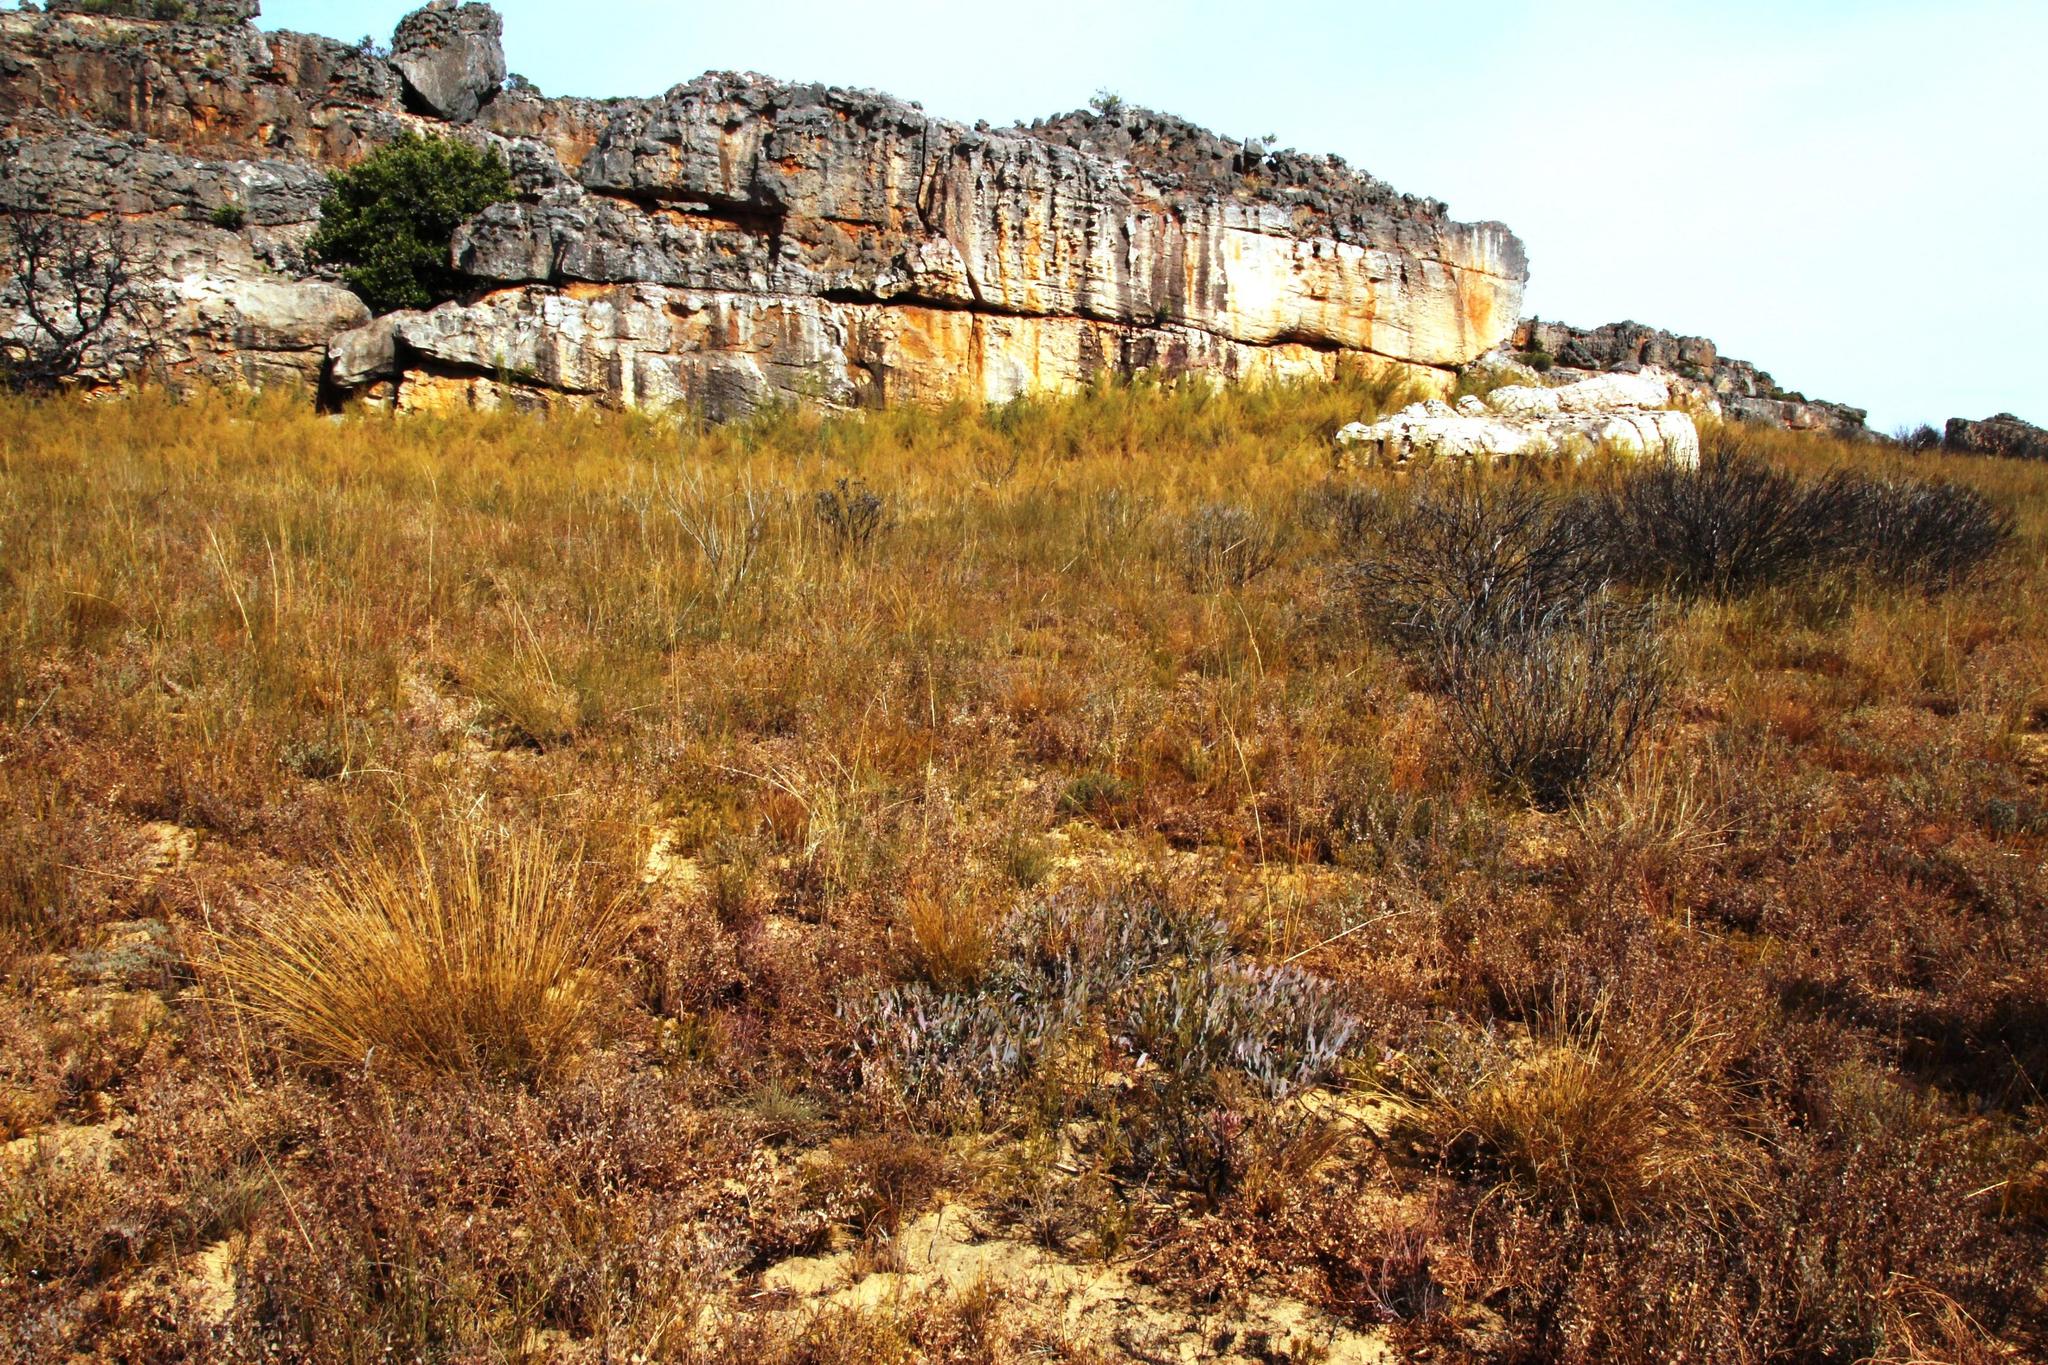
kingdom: Plantae
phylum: Tracheophyta
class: Magnoliopsida
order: Proteales
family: Proteaceae
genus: Protea
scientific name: Protea laevis
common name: Smooth-leaf sugarbush
